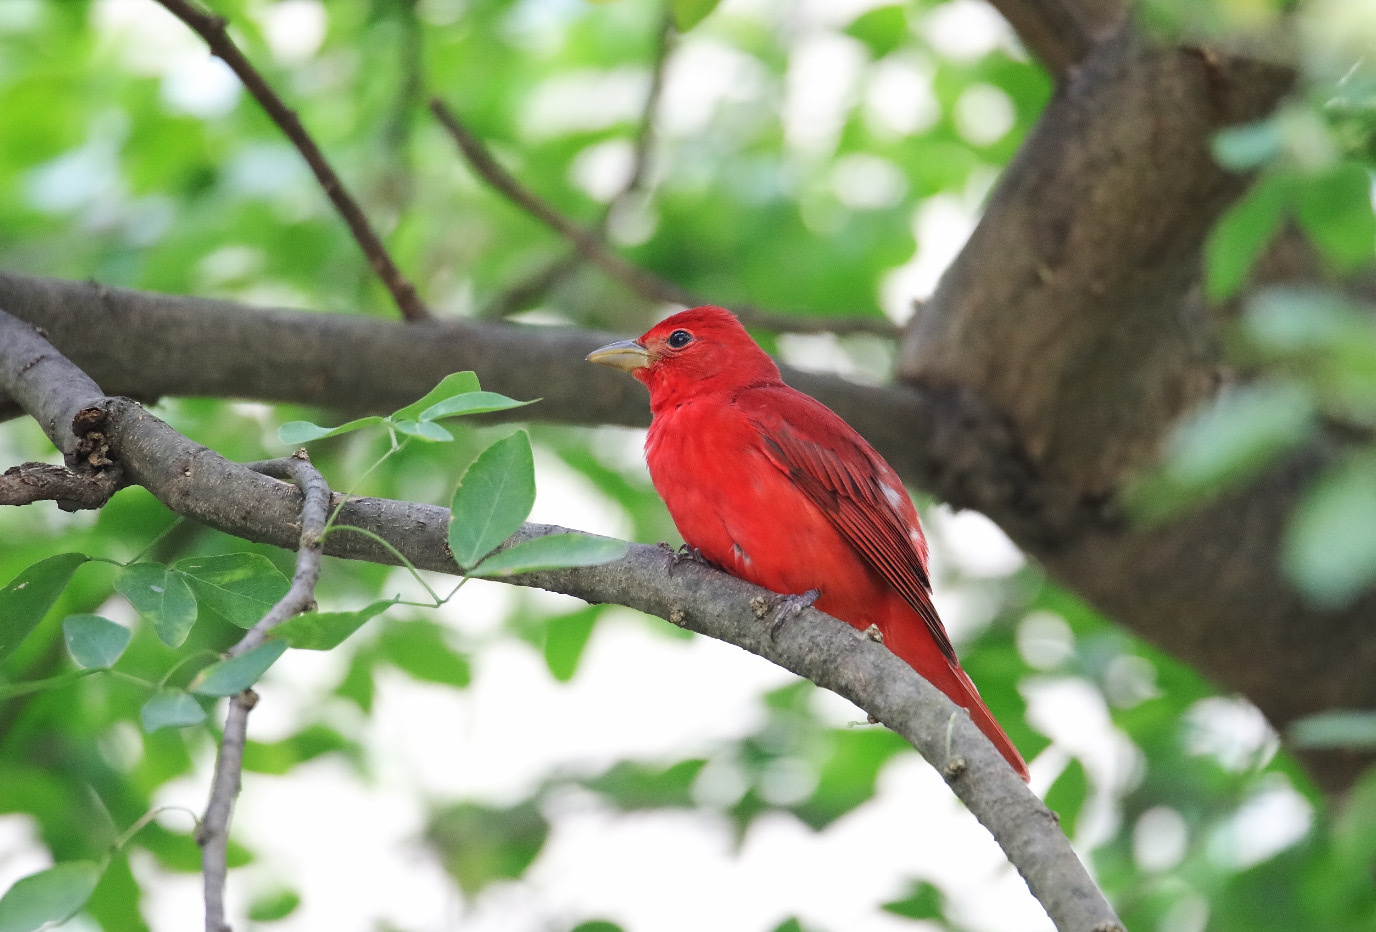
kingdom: Animalia
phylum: Chordata
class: Aves
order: Passeriformes
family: Cardinalidae
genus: Piranga
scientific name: Piranga rubra
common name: Summer tanager
